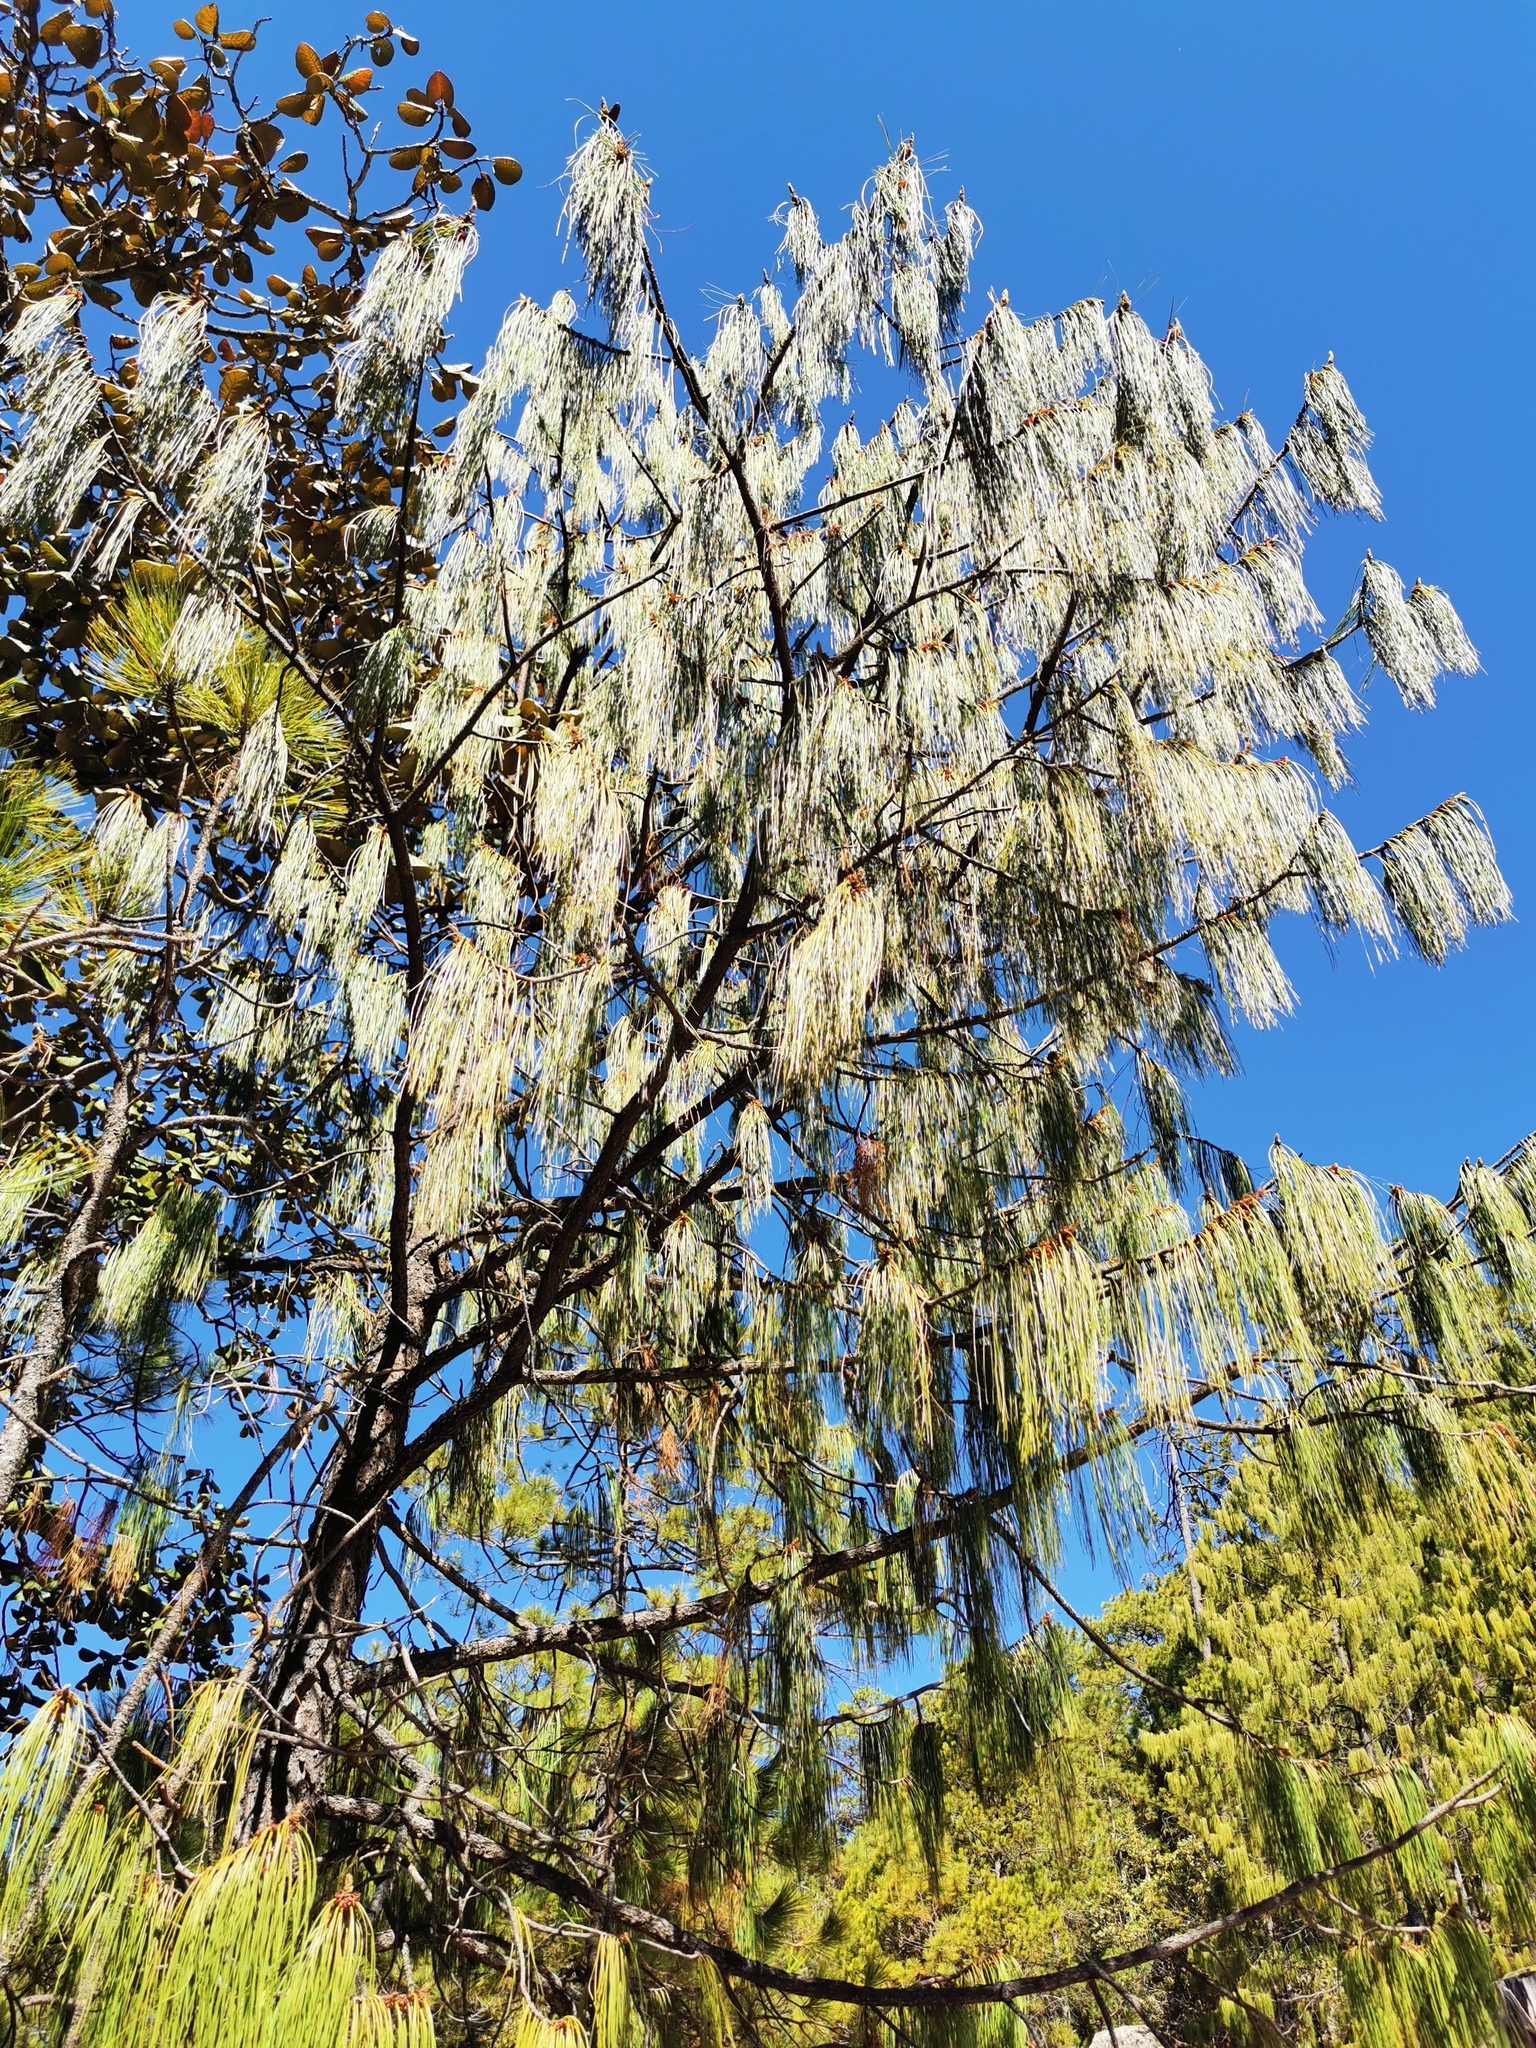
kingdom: Plantae
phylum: Tracheophyta
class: Pinopsida
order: Pinales
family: Pinaceae
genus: Pinus
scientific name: Pinus lumholtzii
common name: Lumholtz's pine
